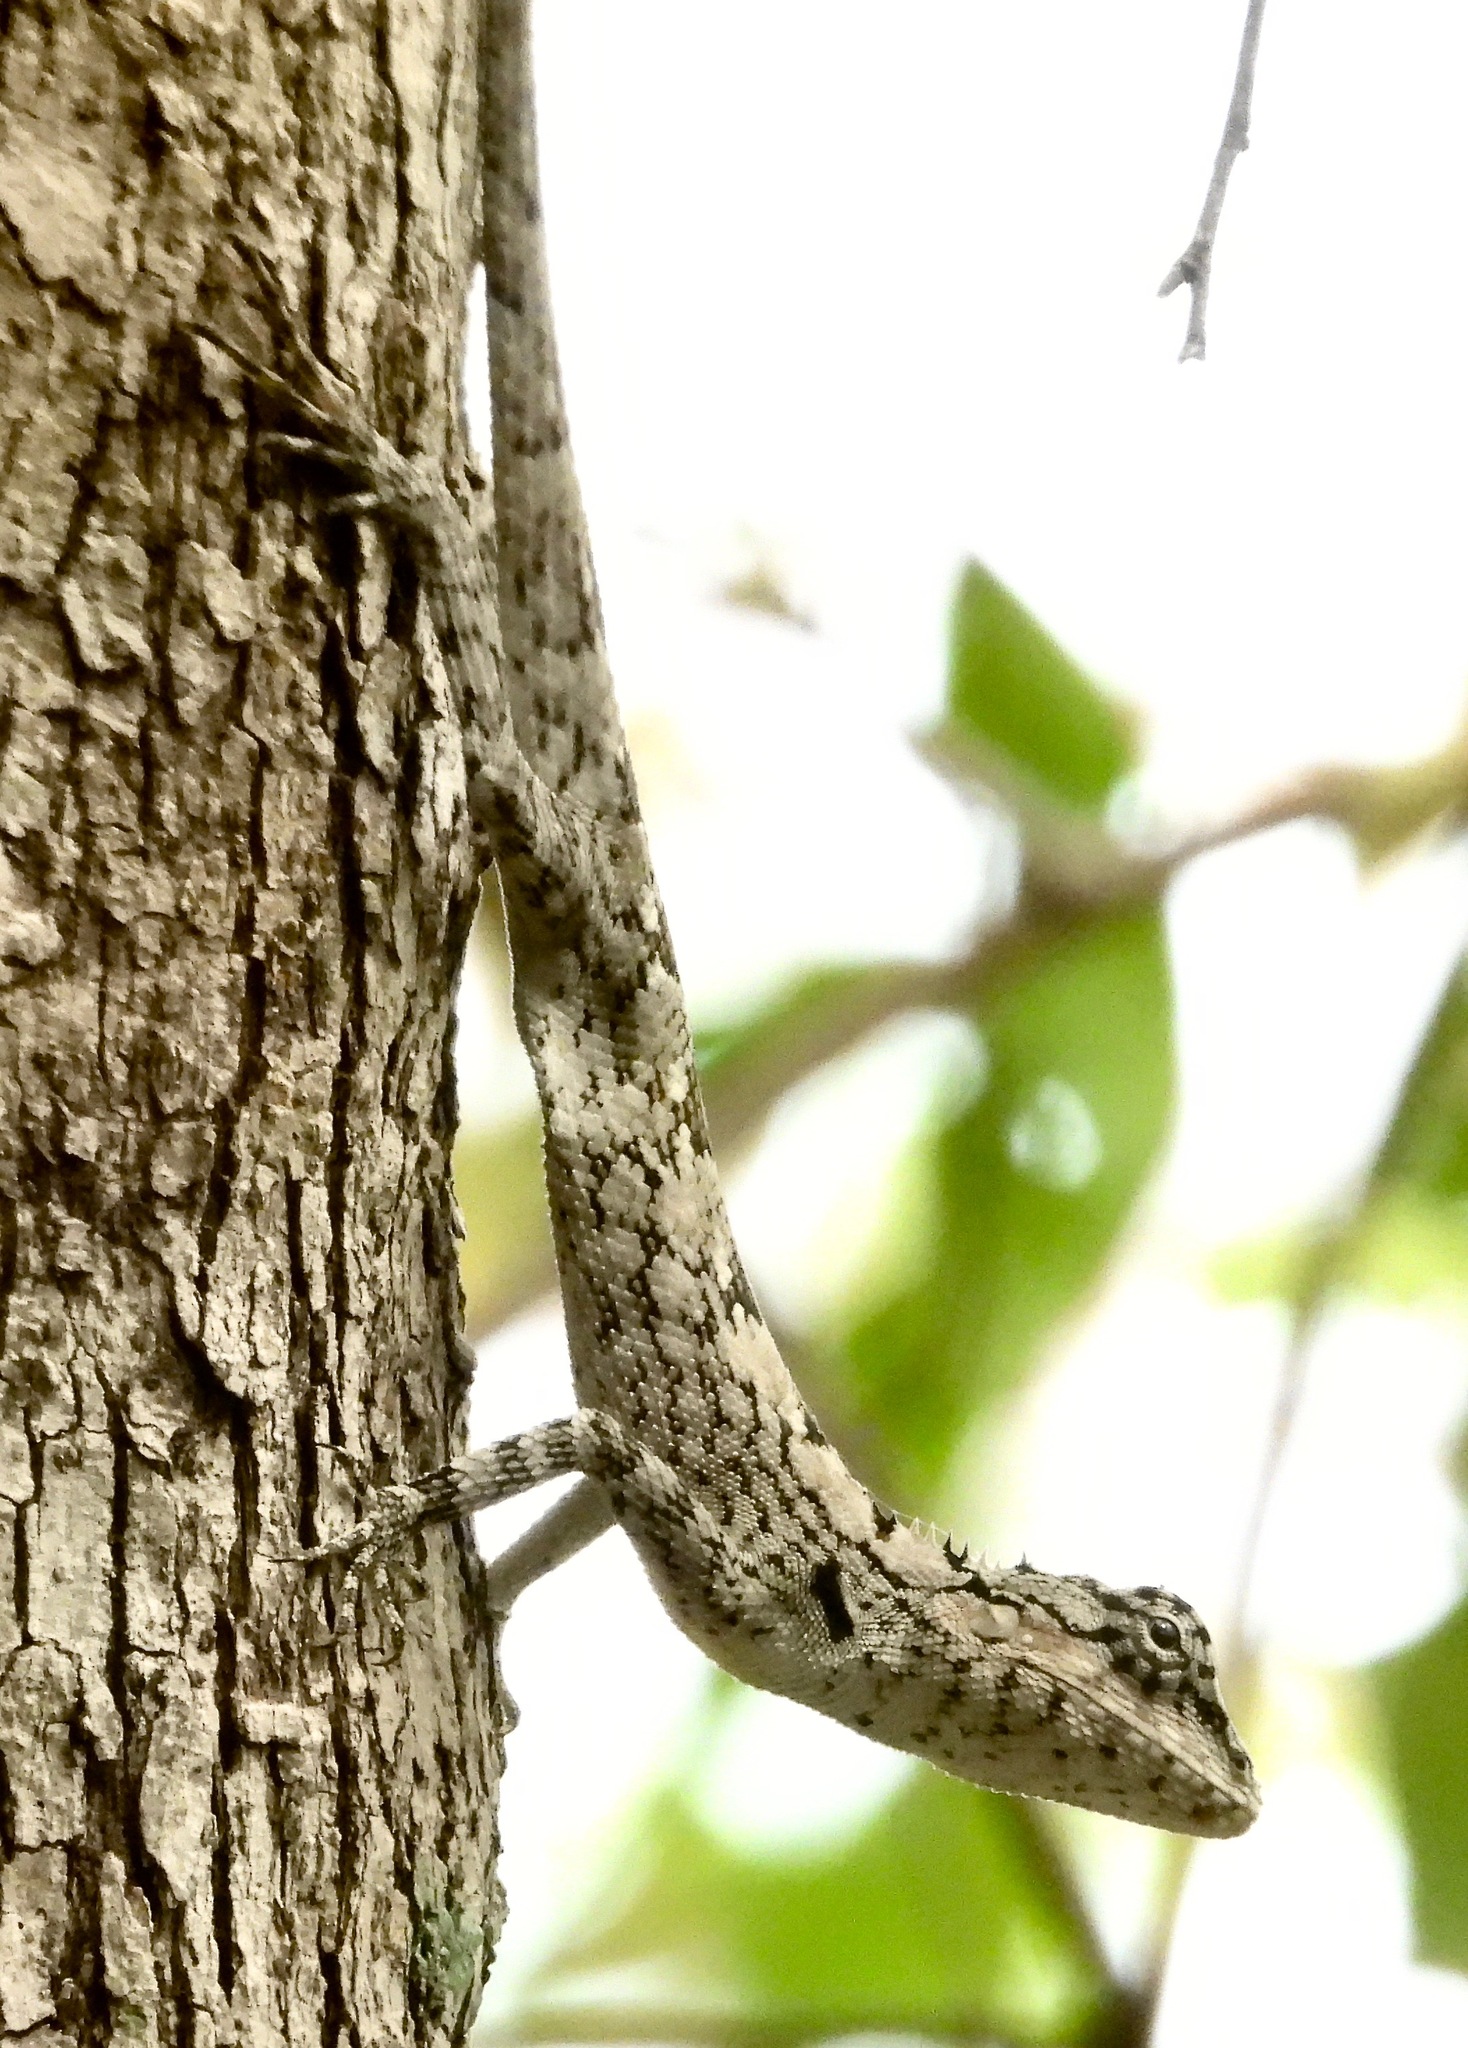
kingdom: Animalia
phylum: Chordata
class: Squamata
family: Agamidae
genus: Calotes
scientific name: Calotes ceylonensis
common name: Ceylon bloodsucker
